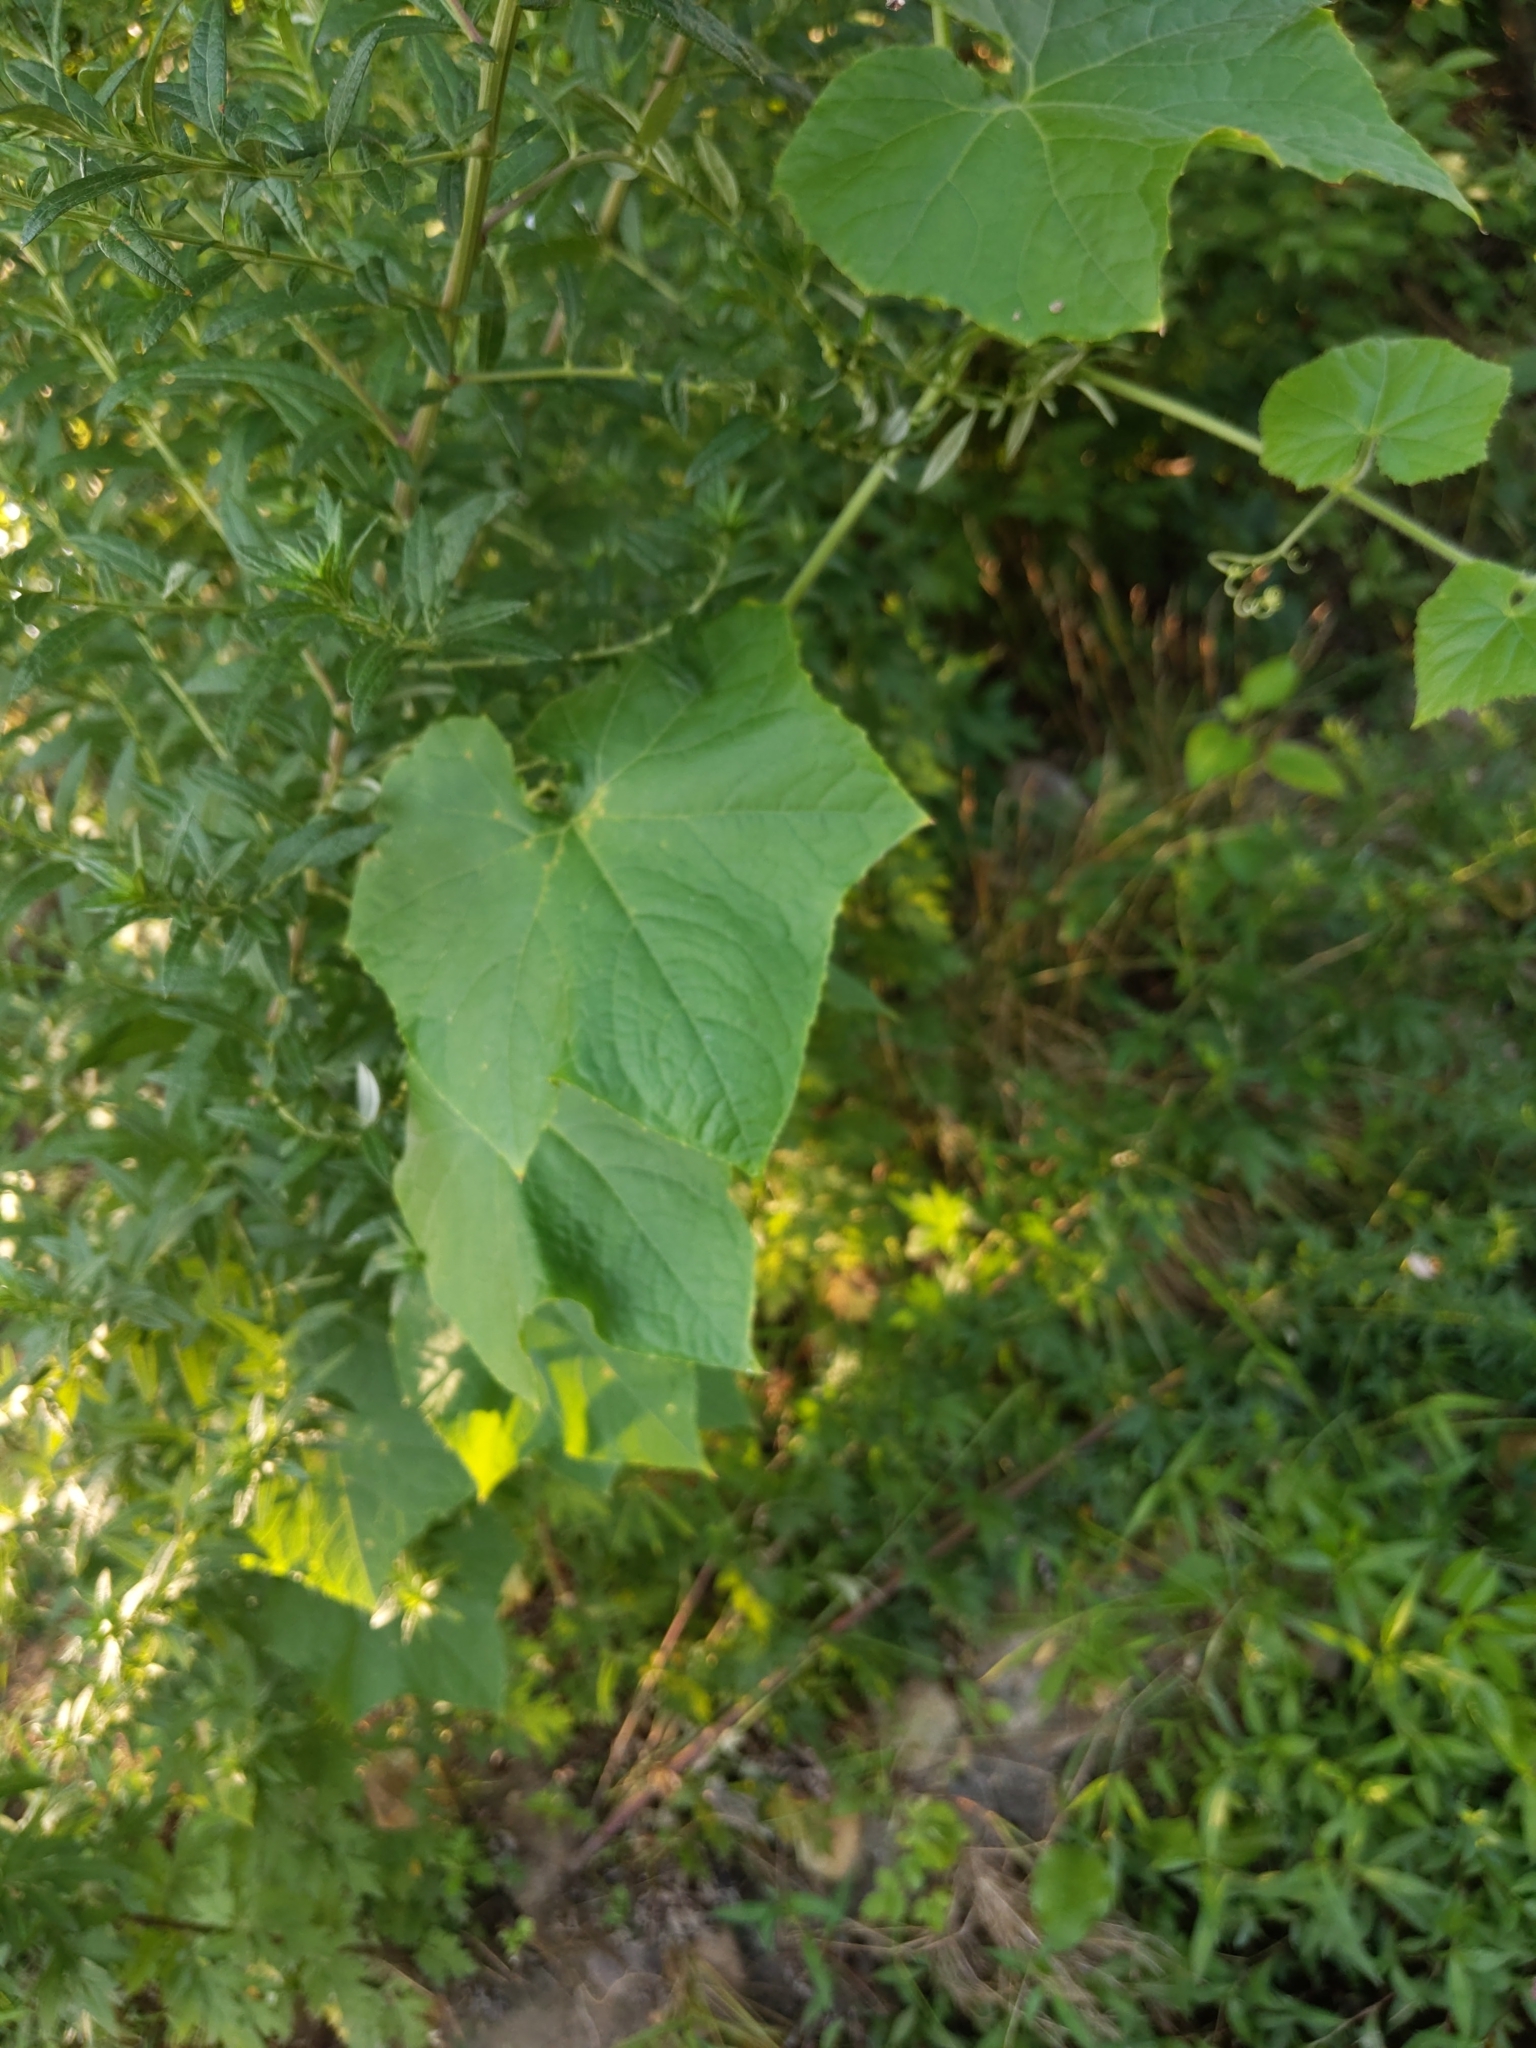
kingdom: Plantae
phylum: Tracheophyta
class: Magnoliopsida
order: Cucurbitales
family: Cucurbitaceae
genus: Sicyos
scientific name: Sicyos angulatus
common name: Angled burr cucumber
